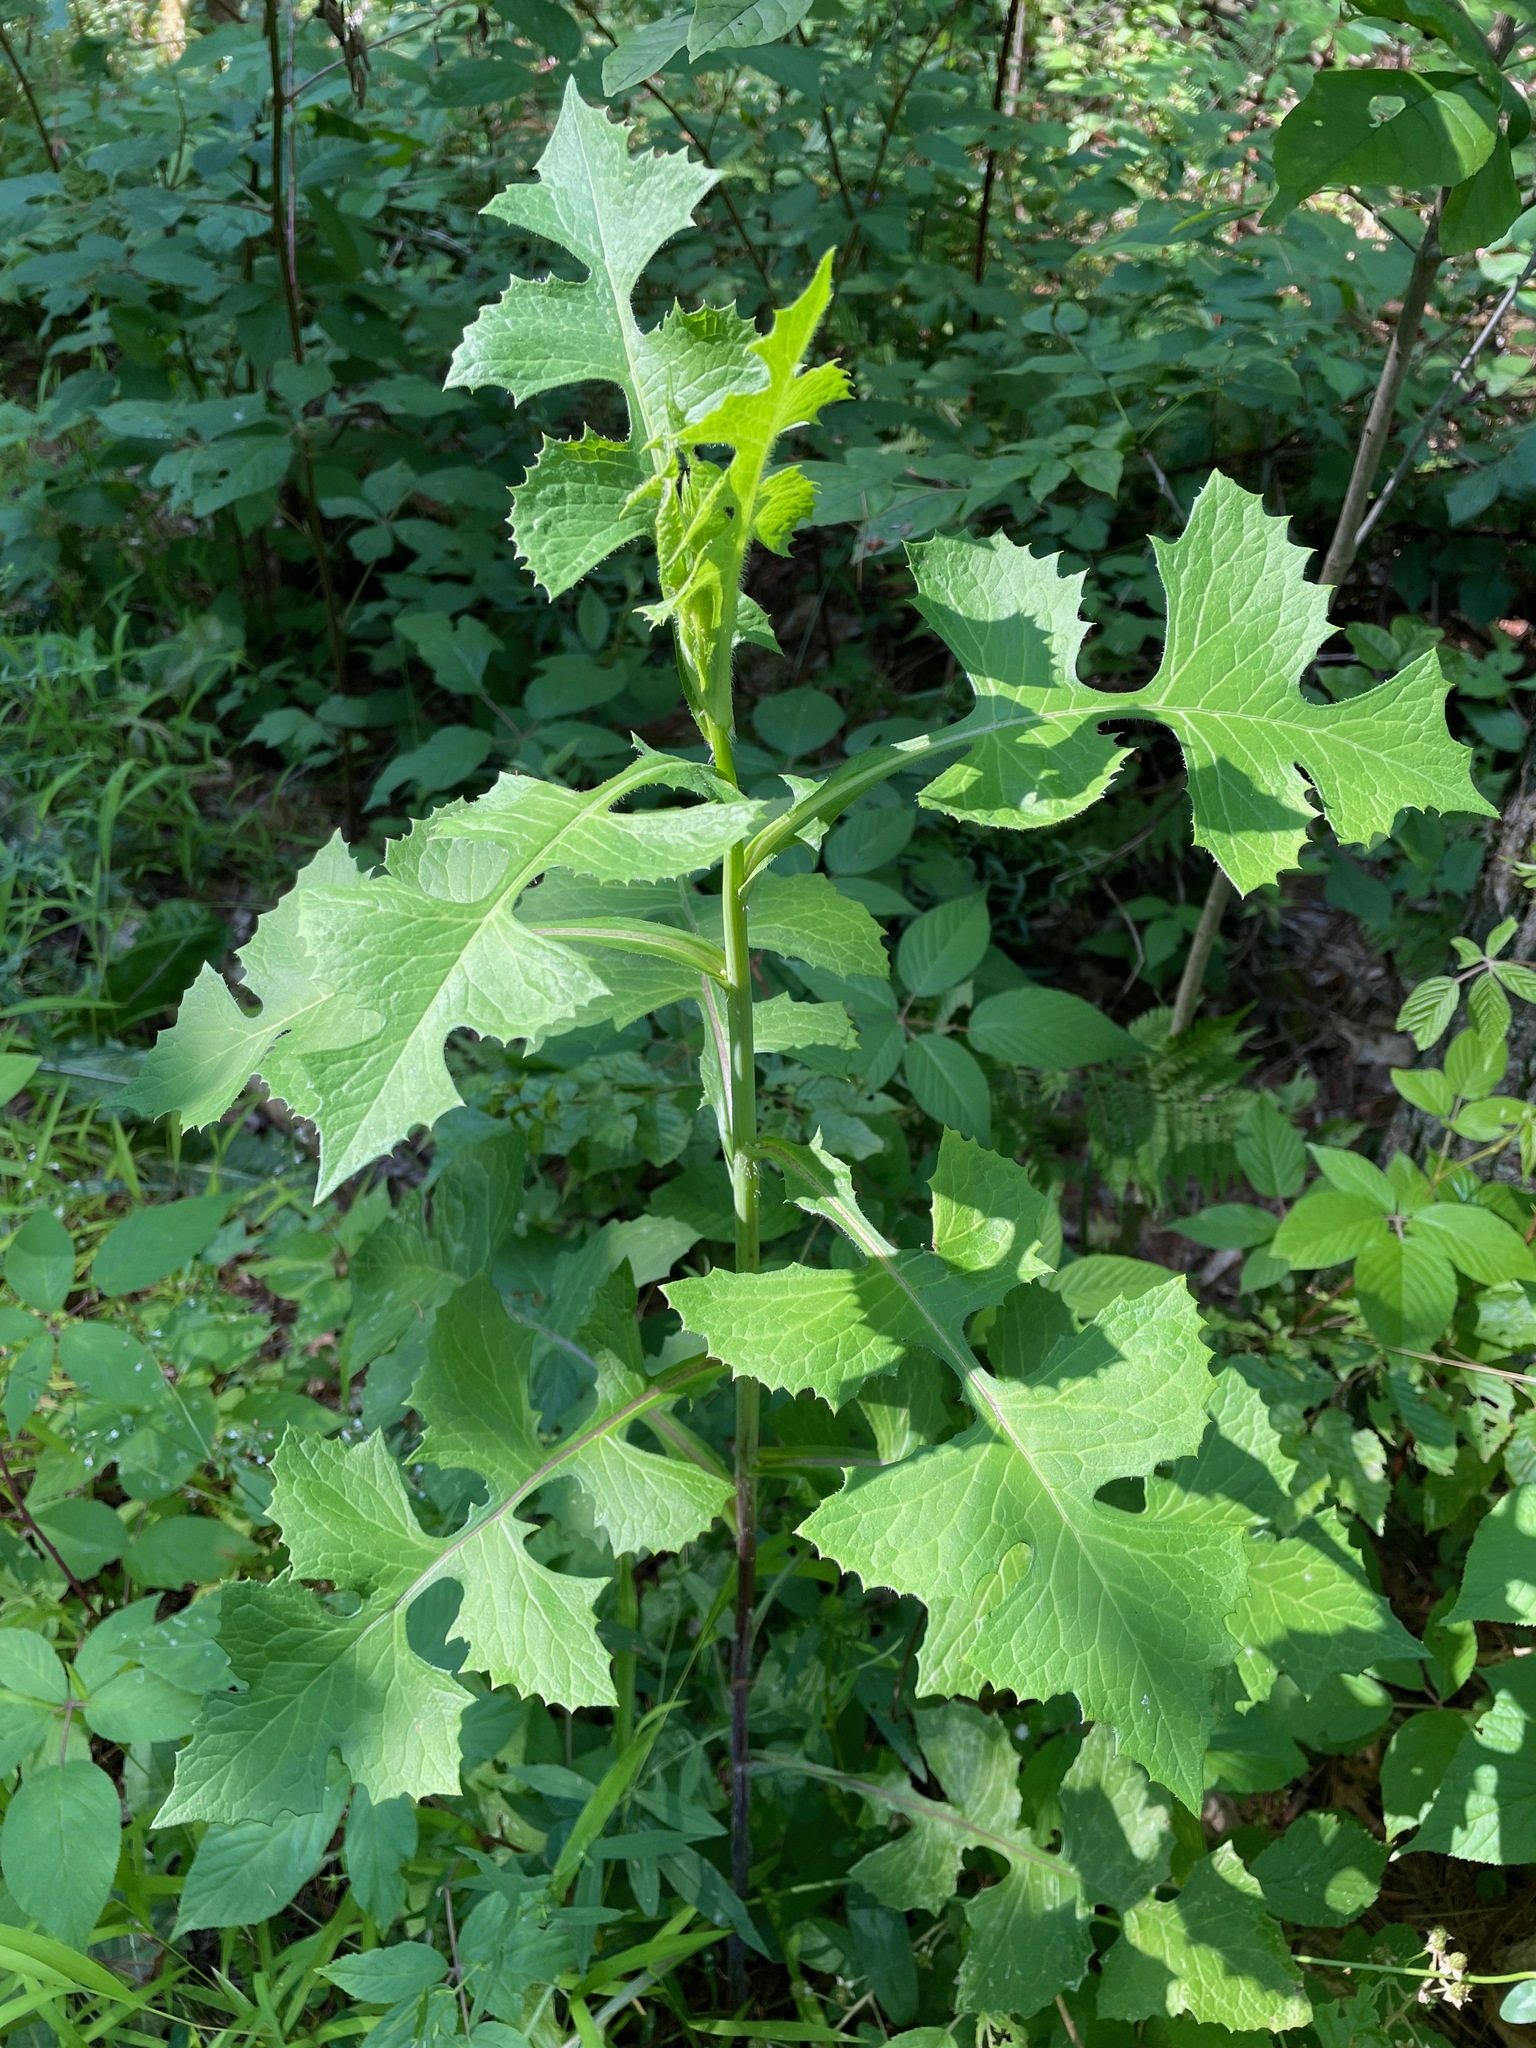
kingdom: Plantae
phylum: Tracheophyta
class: Magnoliopsida
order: Asterales
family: Asteraceae
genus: Lactuca
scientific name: Lactuca biennis
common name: Blue wood lettuce
